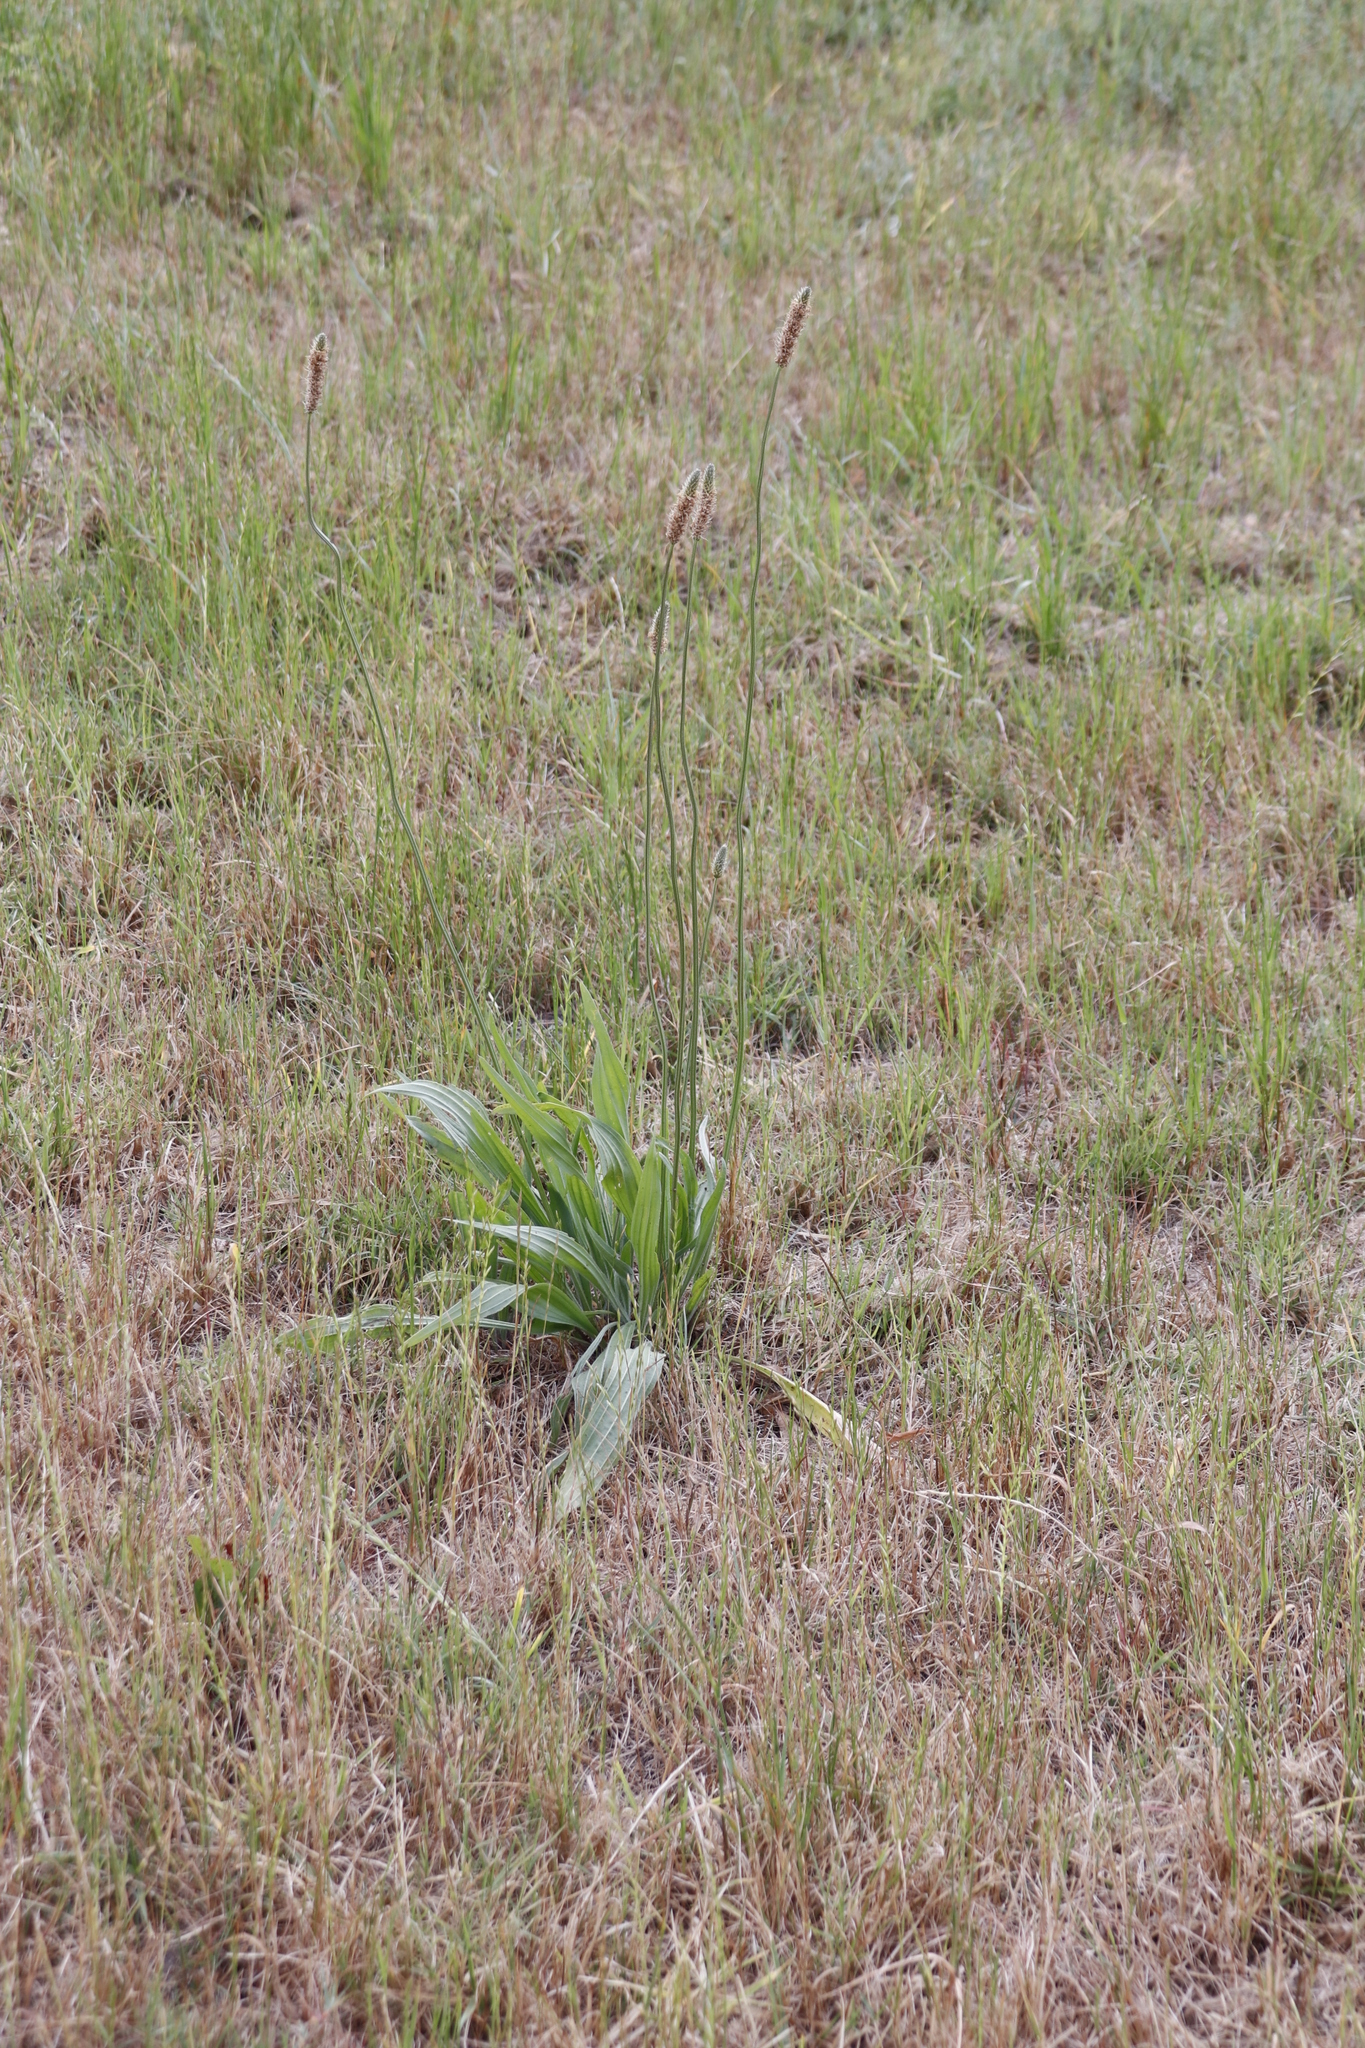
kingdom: Plantae
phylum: Tracheophyta
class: Magnoliopsida
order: Lamiales
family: Plantaginaceae
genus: Plantago
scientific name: Plantago lanceolata
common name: Ribwort plantain
